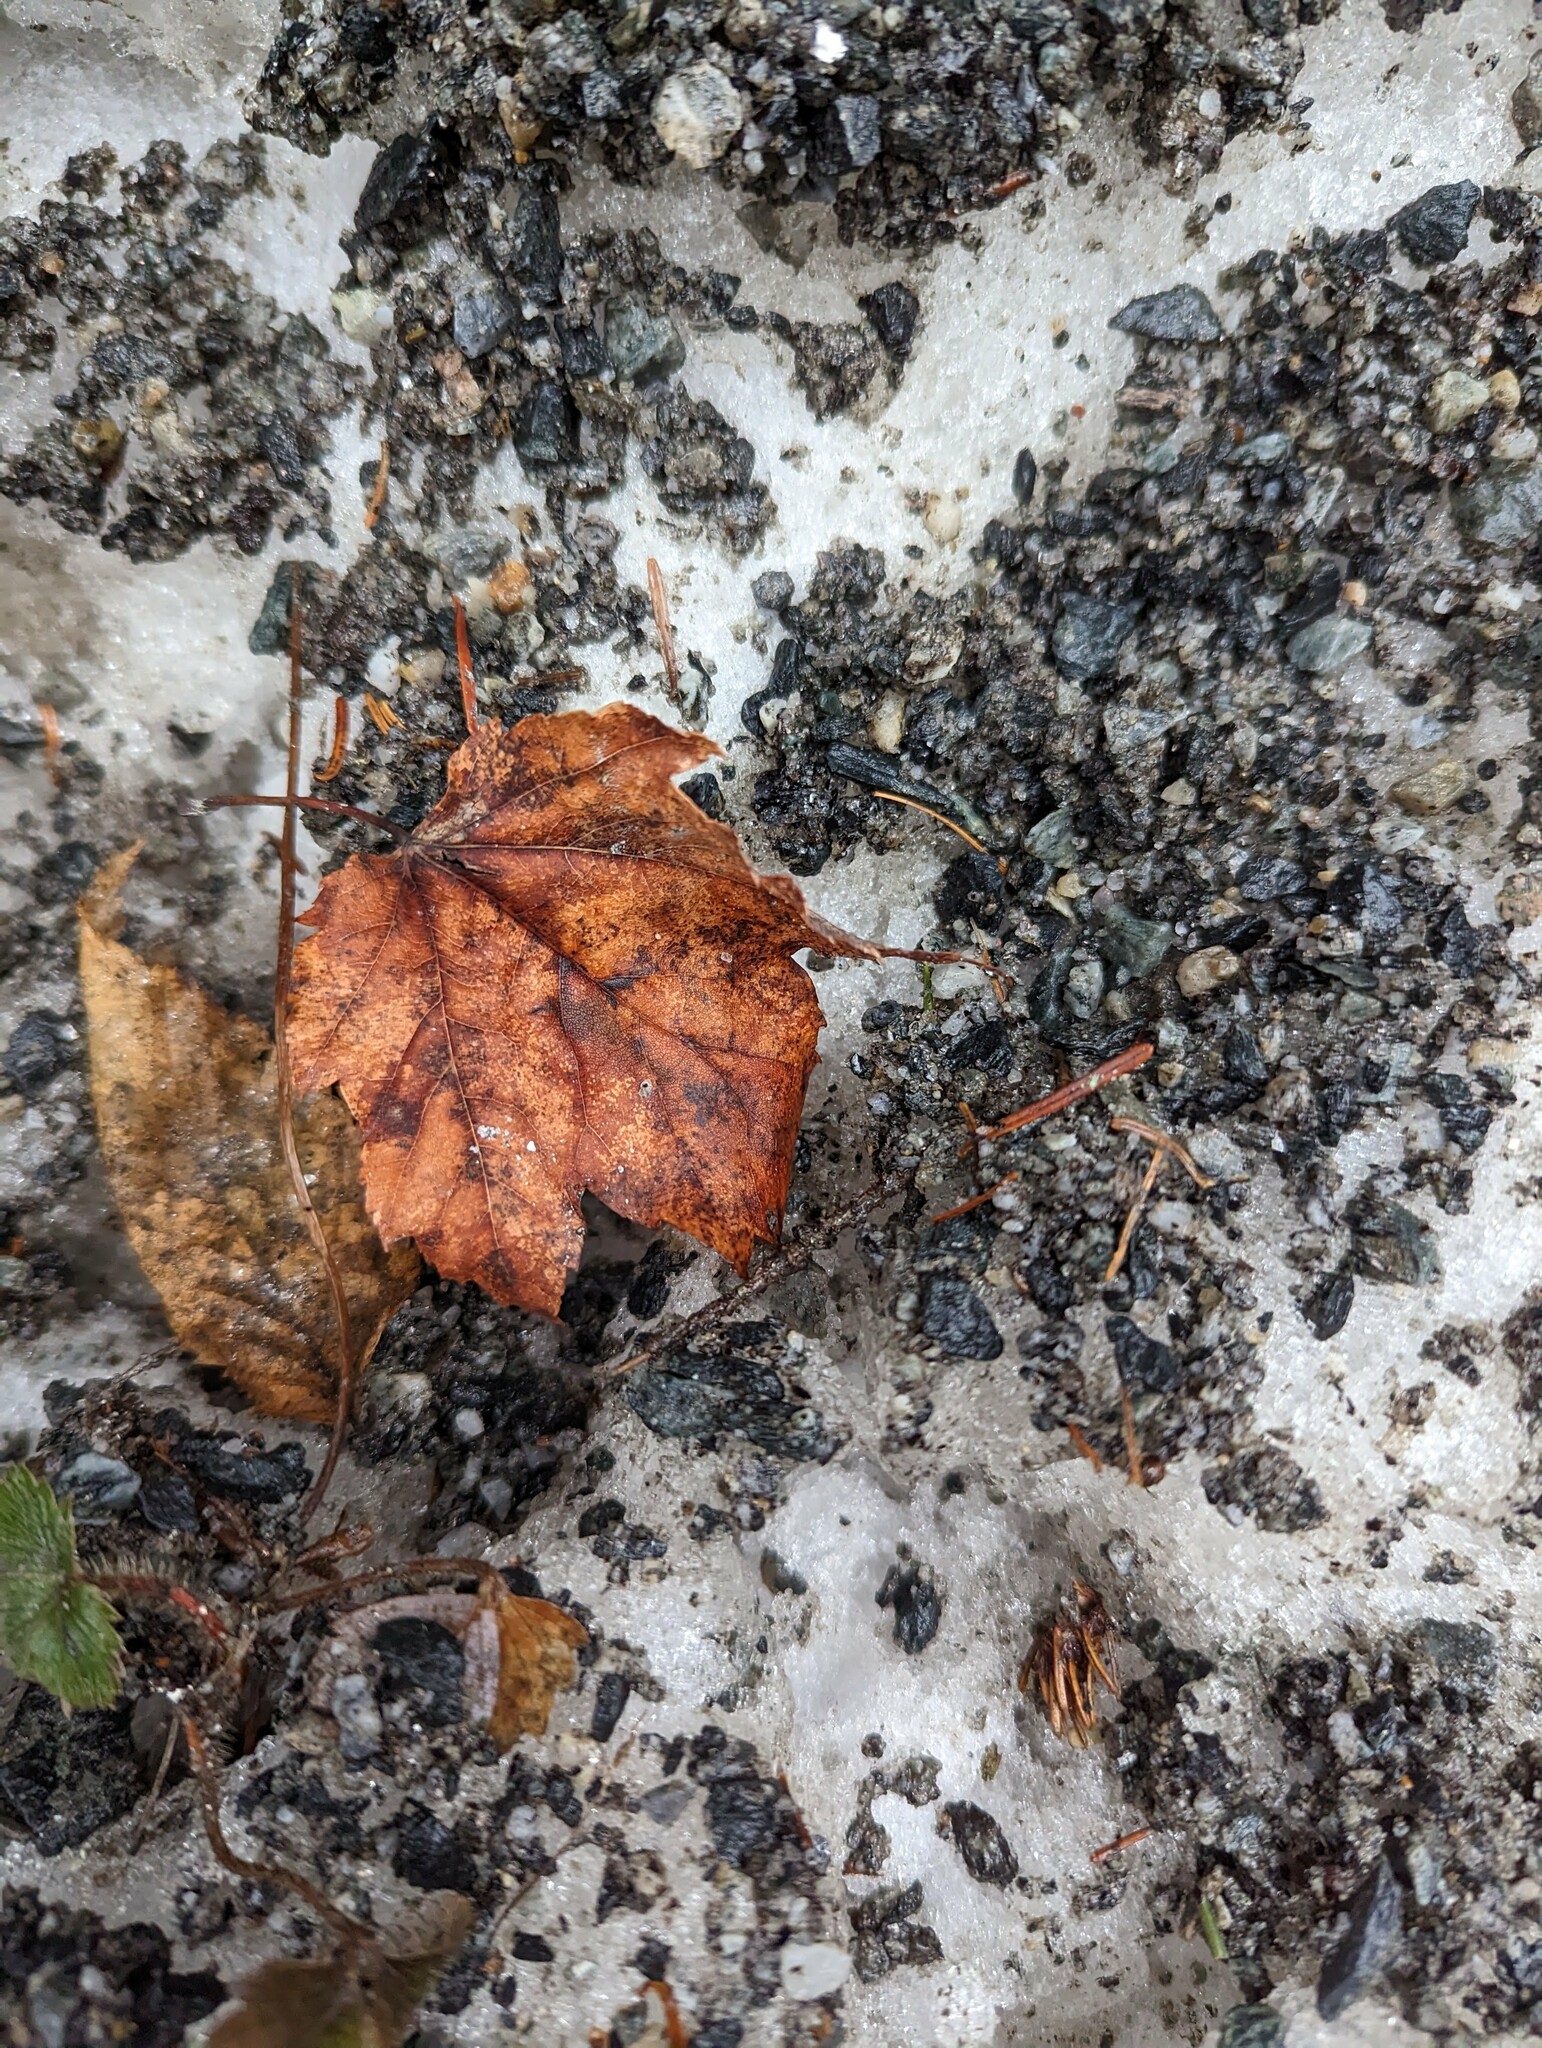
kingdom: Plantae
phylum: Tracheophyta
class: Magnoliopsida
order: Sapindales
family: Sapindaceae
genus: Acer
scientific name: Acer rubrum
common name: Red maple
